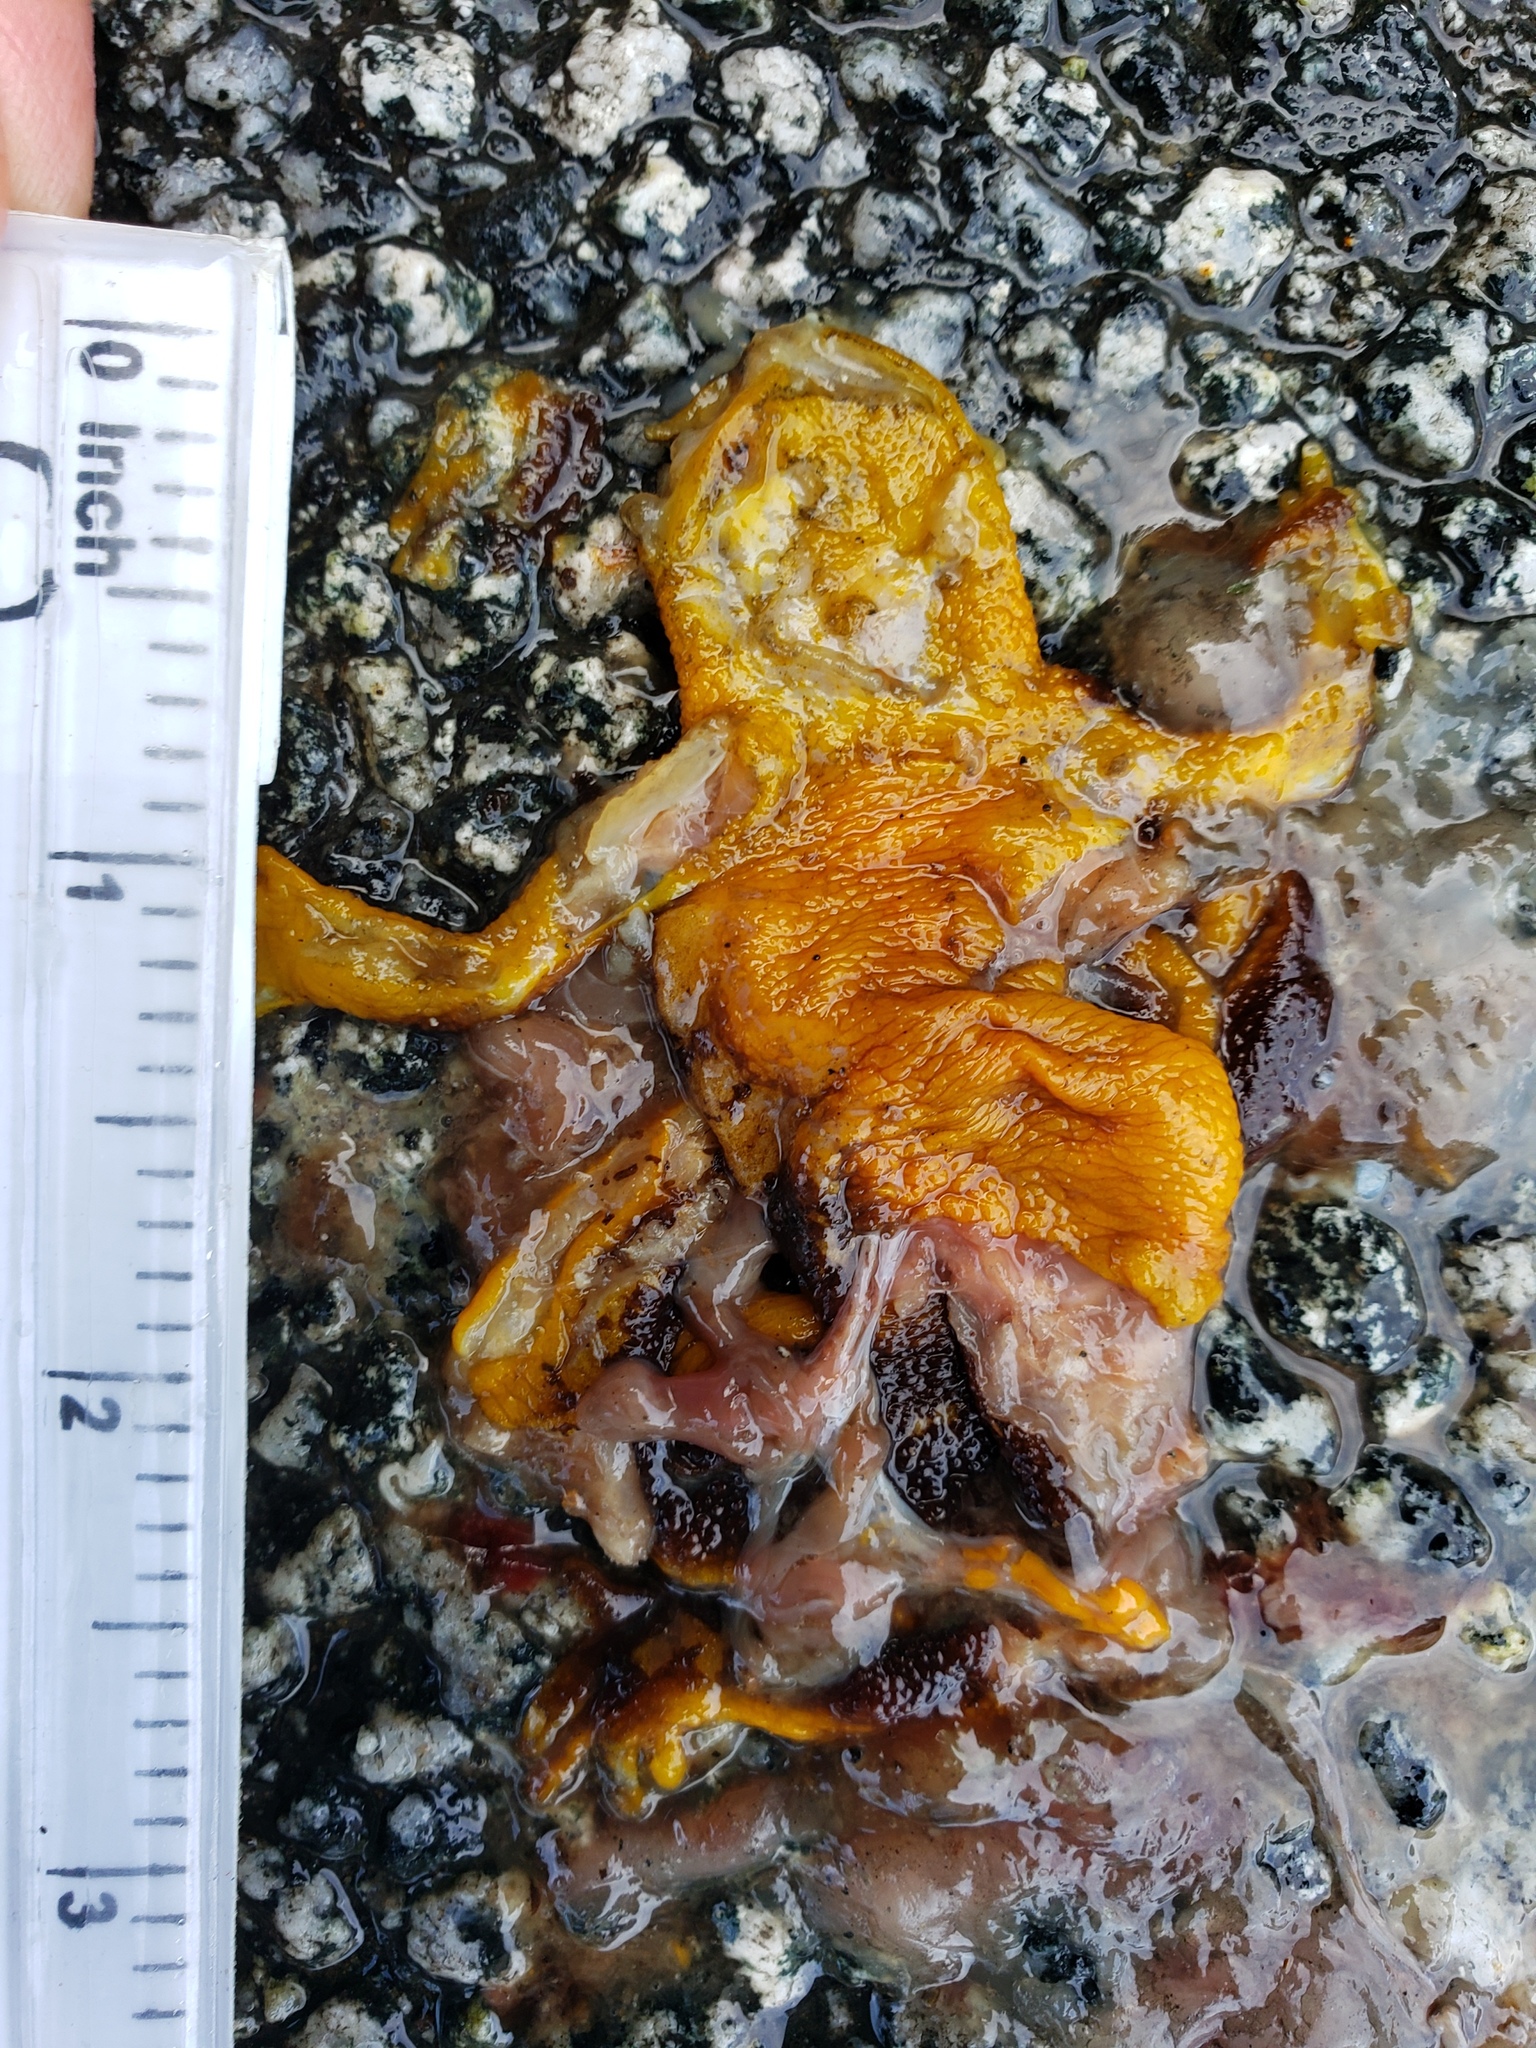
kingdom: Animalia
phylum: Chordata
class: Amphibia
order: Caudata
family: Salamandridae
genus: Taricha
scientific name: Taricha
